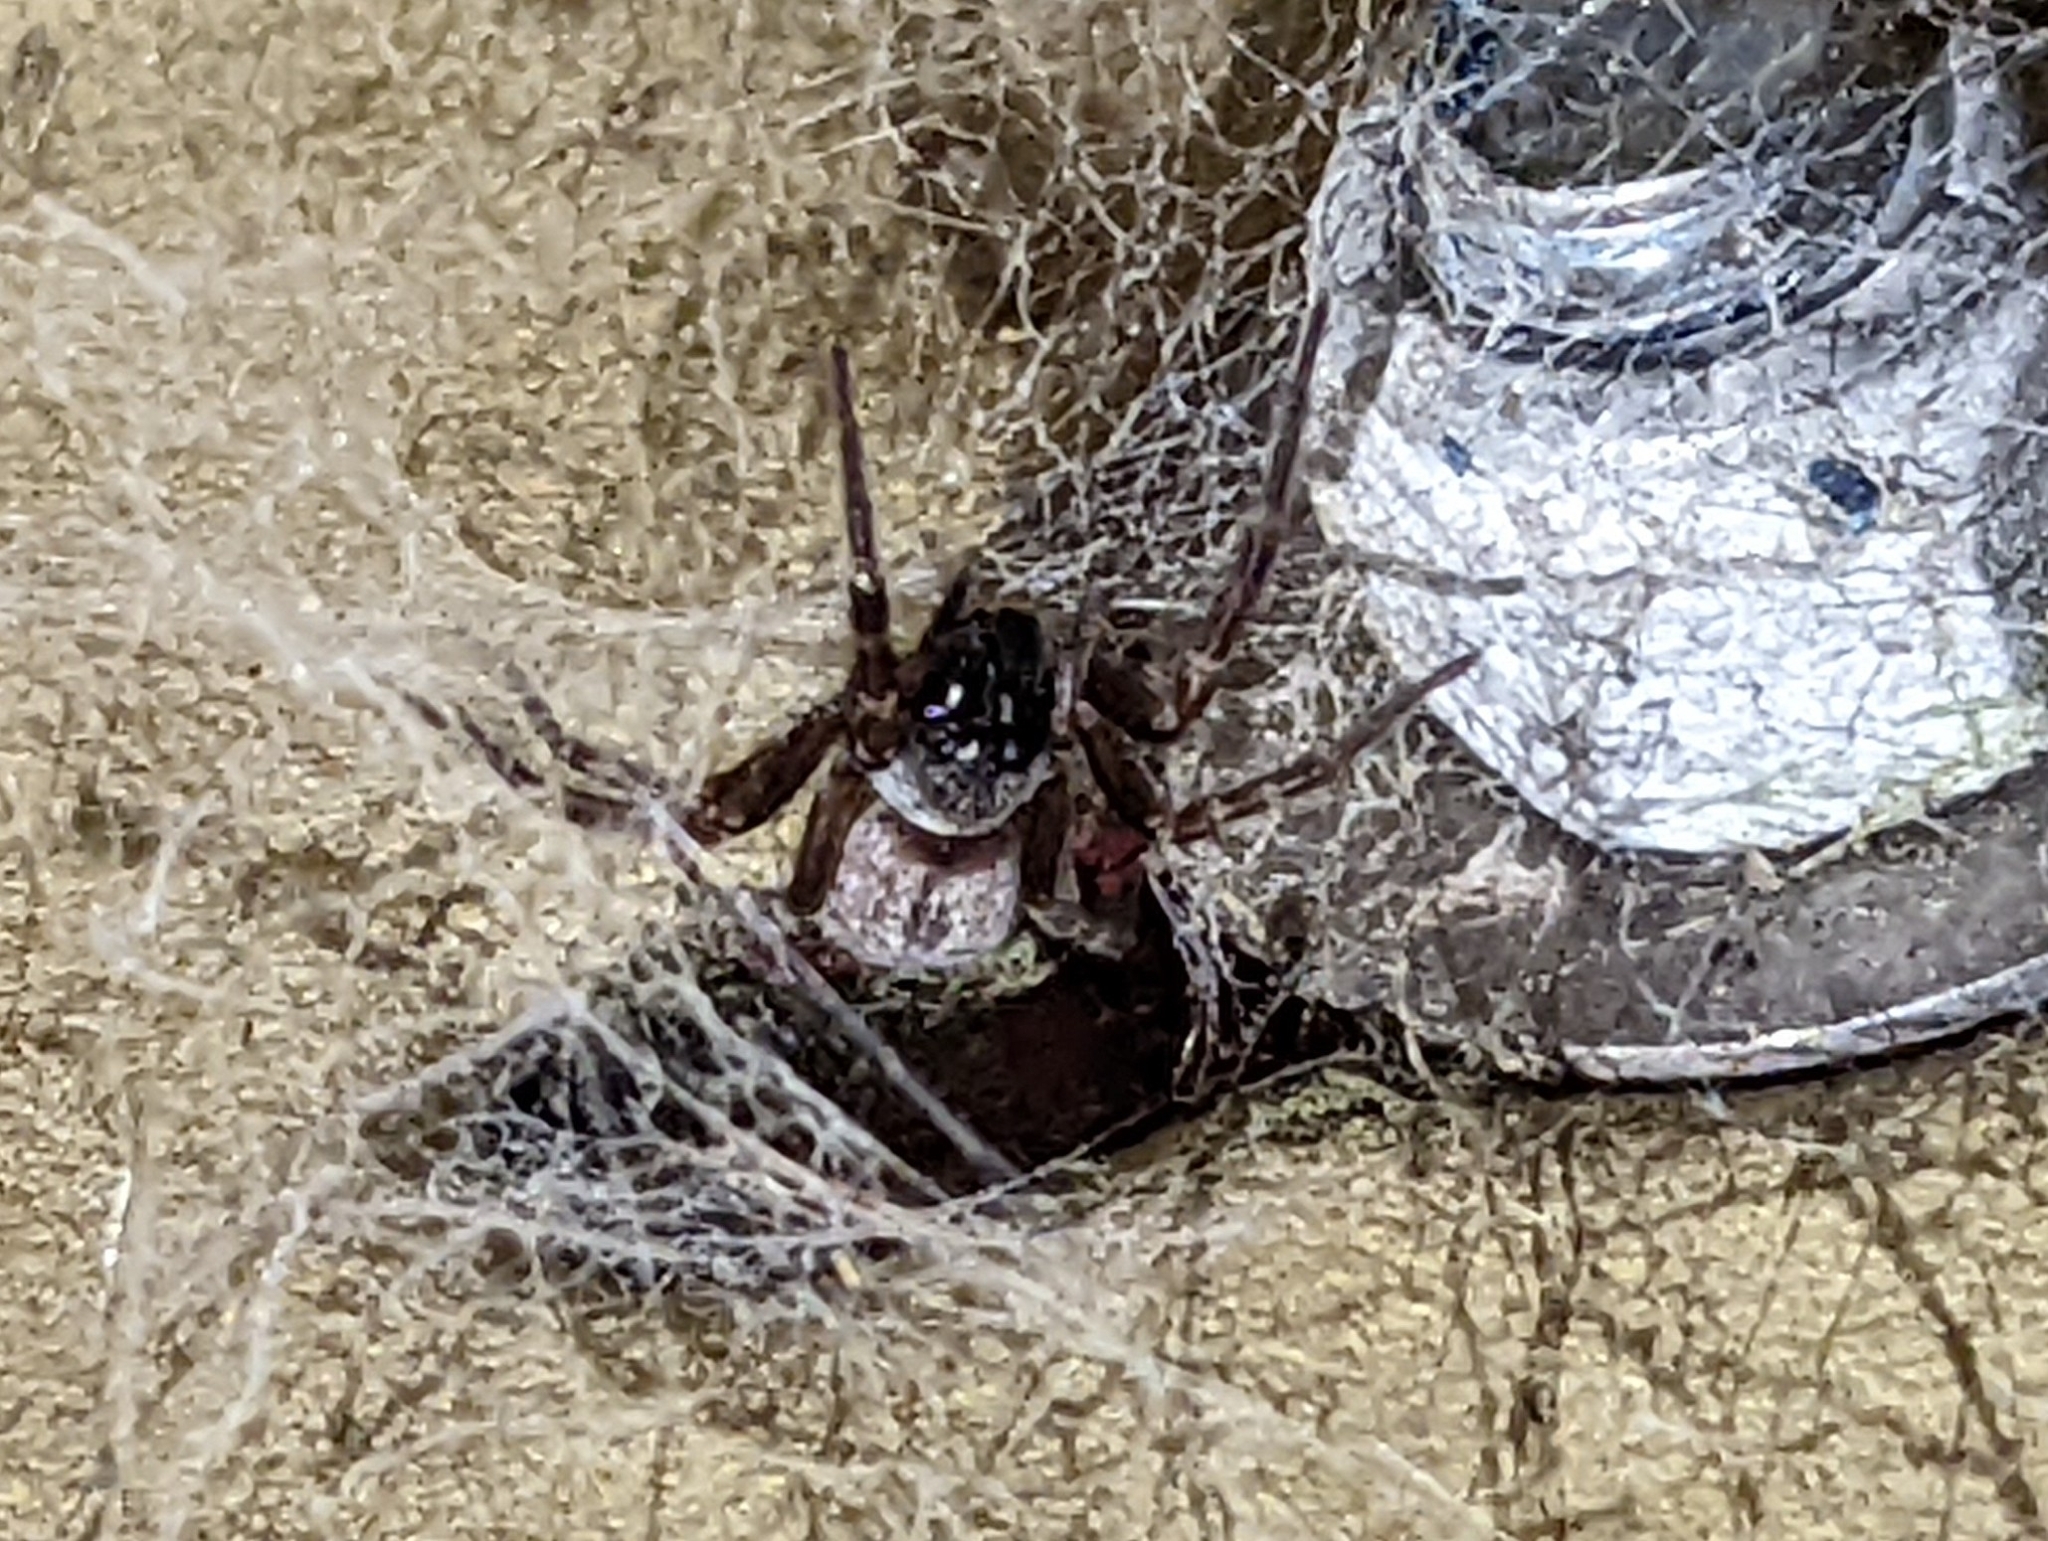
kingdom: Animalia
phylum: Arthropoda
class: Arachnida
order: Araneae
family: Desidae
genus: Badumna
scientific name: Badumna longinqua
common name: Gray house spider
